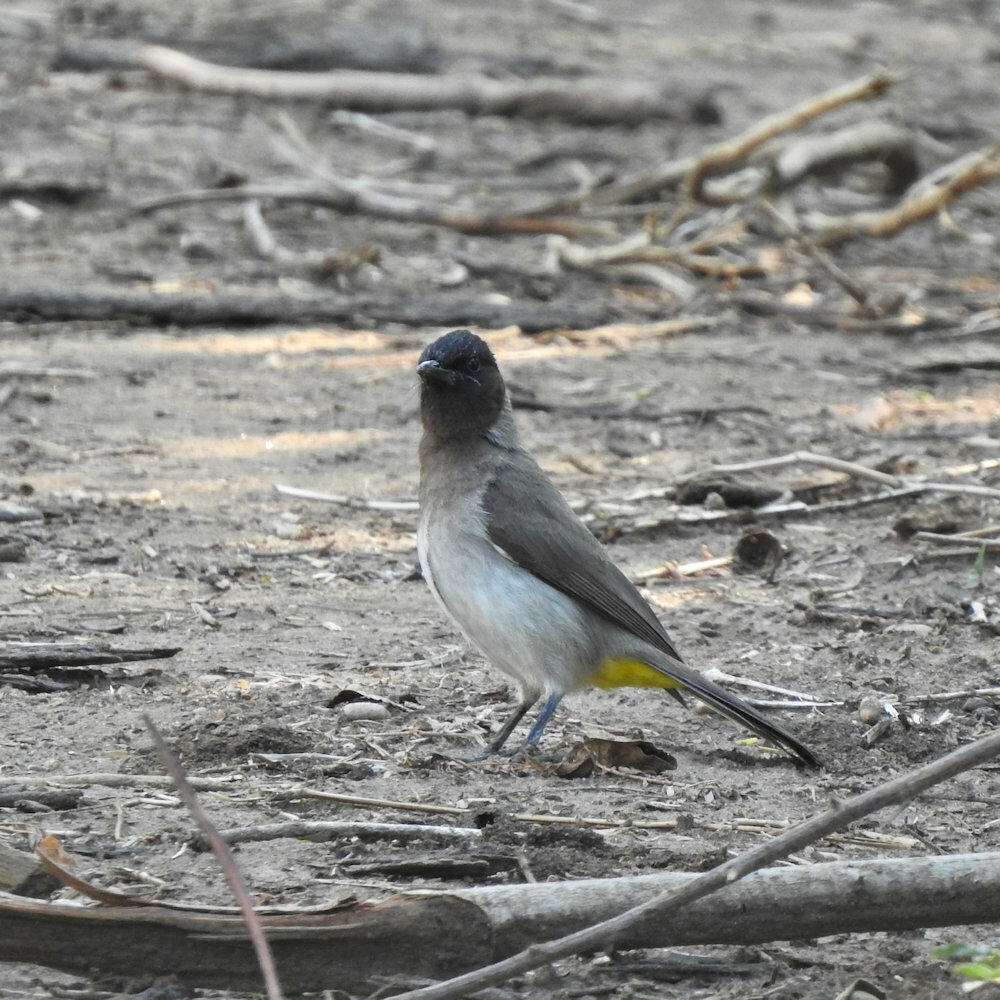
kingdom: Animalia
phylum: Chordata
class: Aves
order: Passeriformes
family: Pycnonotidae
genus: Pycnonotus
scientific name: Pycnonotus barbatus
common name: Common bulbul
